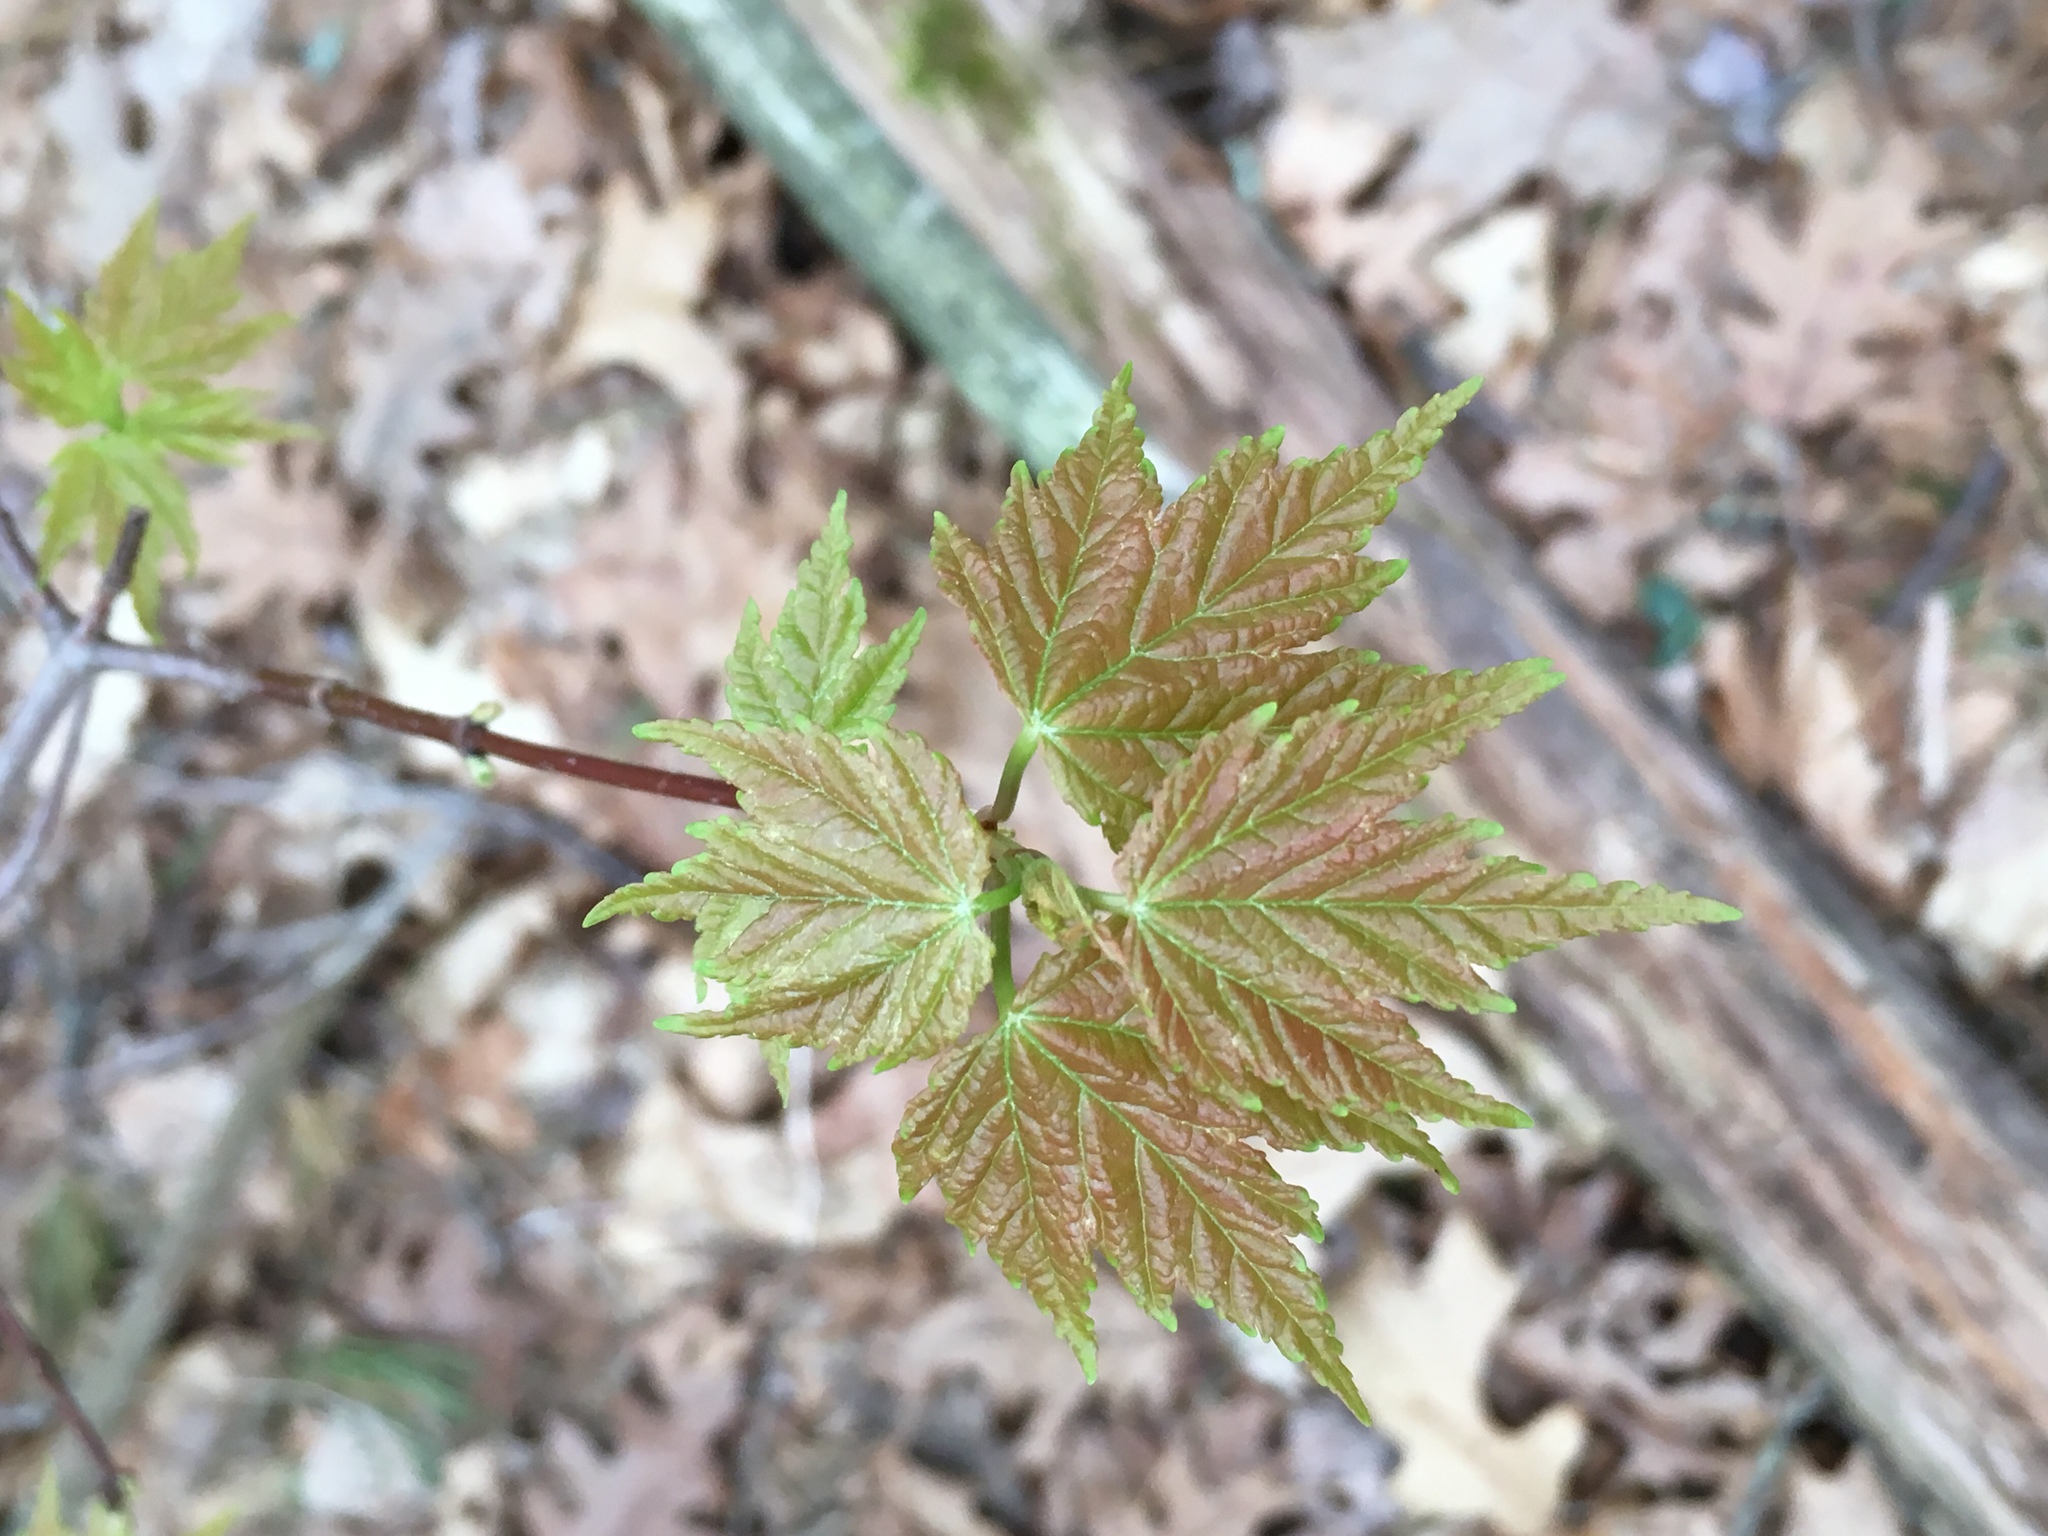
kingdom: Plantae
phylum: Tracheophyta
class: Magnoliopsida
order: Sapindales
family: Sapindaceae
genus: Acer
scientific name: Acer rubrum
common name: Red maple
